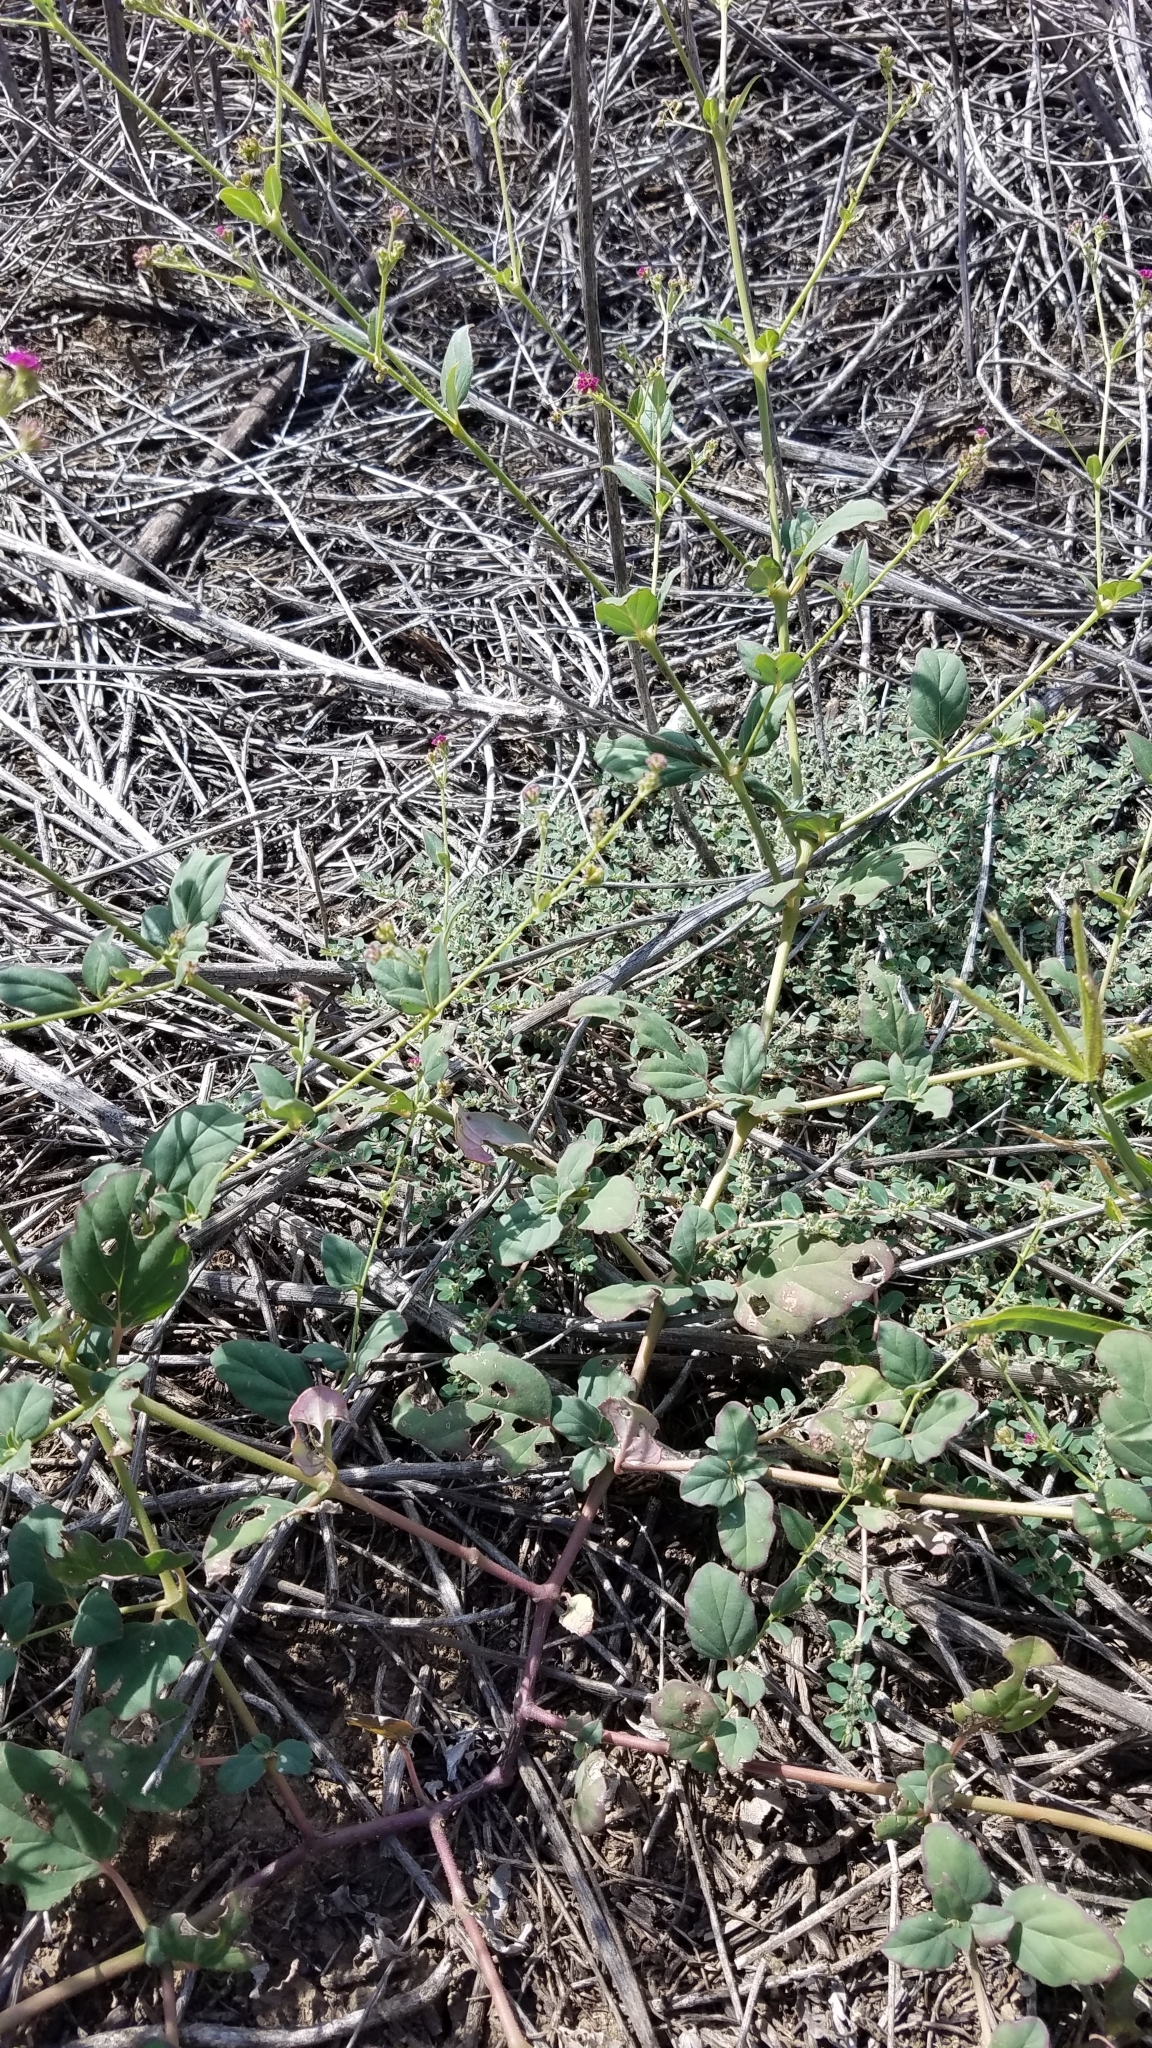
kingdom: Plantae
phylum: Tracheophyta
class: Magnoliopsida
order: Caryophyllales
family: Nyctaginaceae
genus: Boerhavia
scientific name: Boerhavia coccinea
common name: Scarlet spiderling
